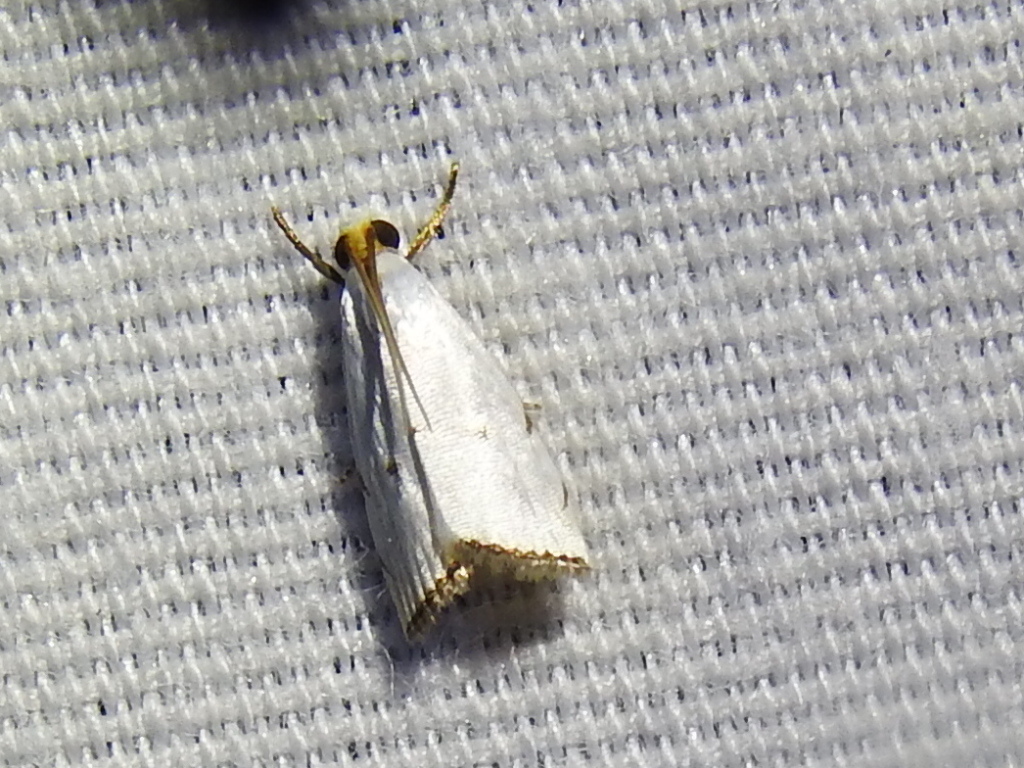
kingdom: Animalia
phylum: Arthropoda
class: Insecta
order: Lepidoptera
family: Crambidae
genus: Argyria
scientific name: Argyria pusillalis
